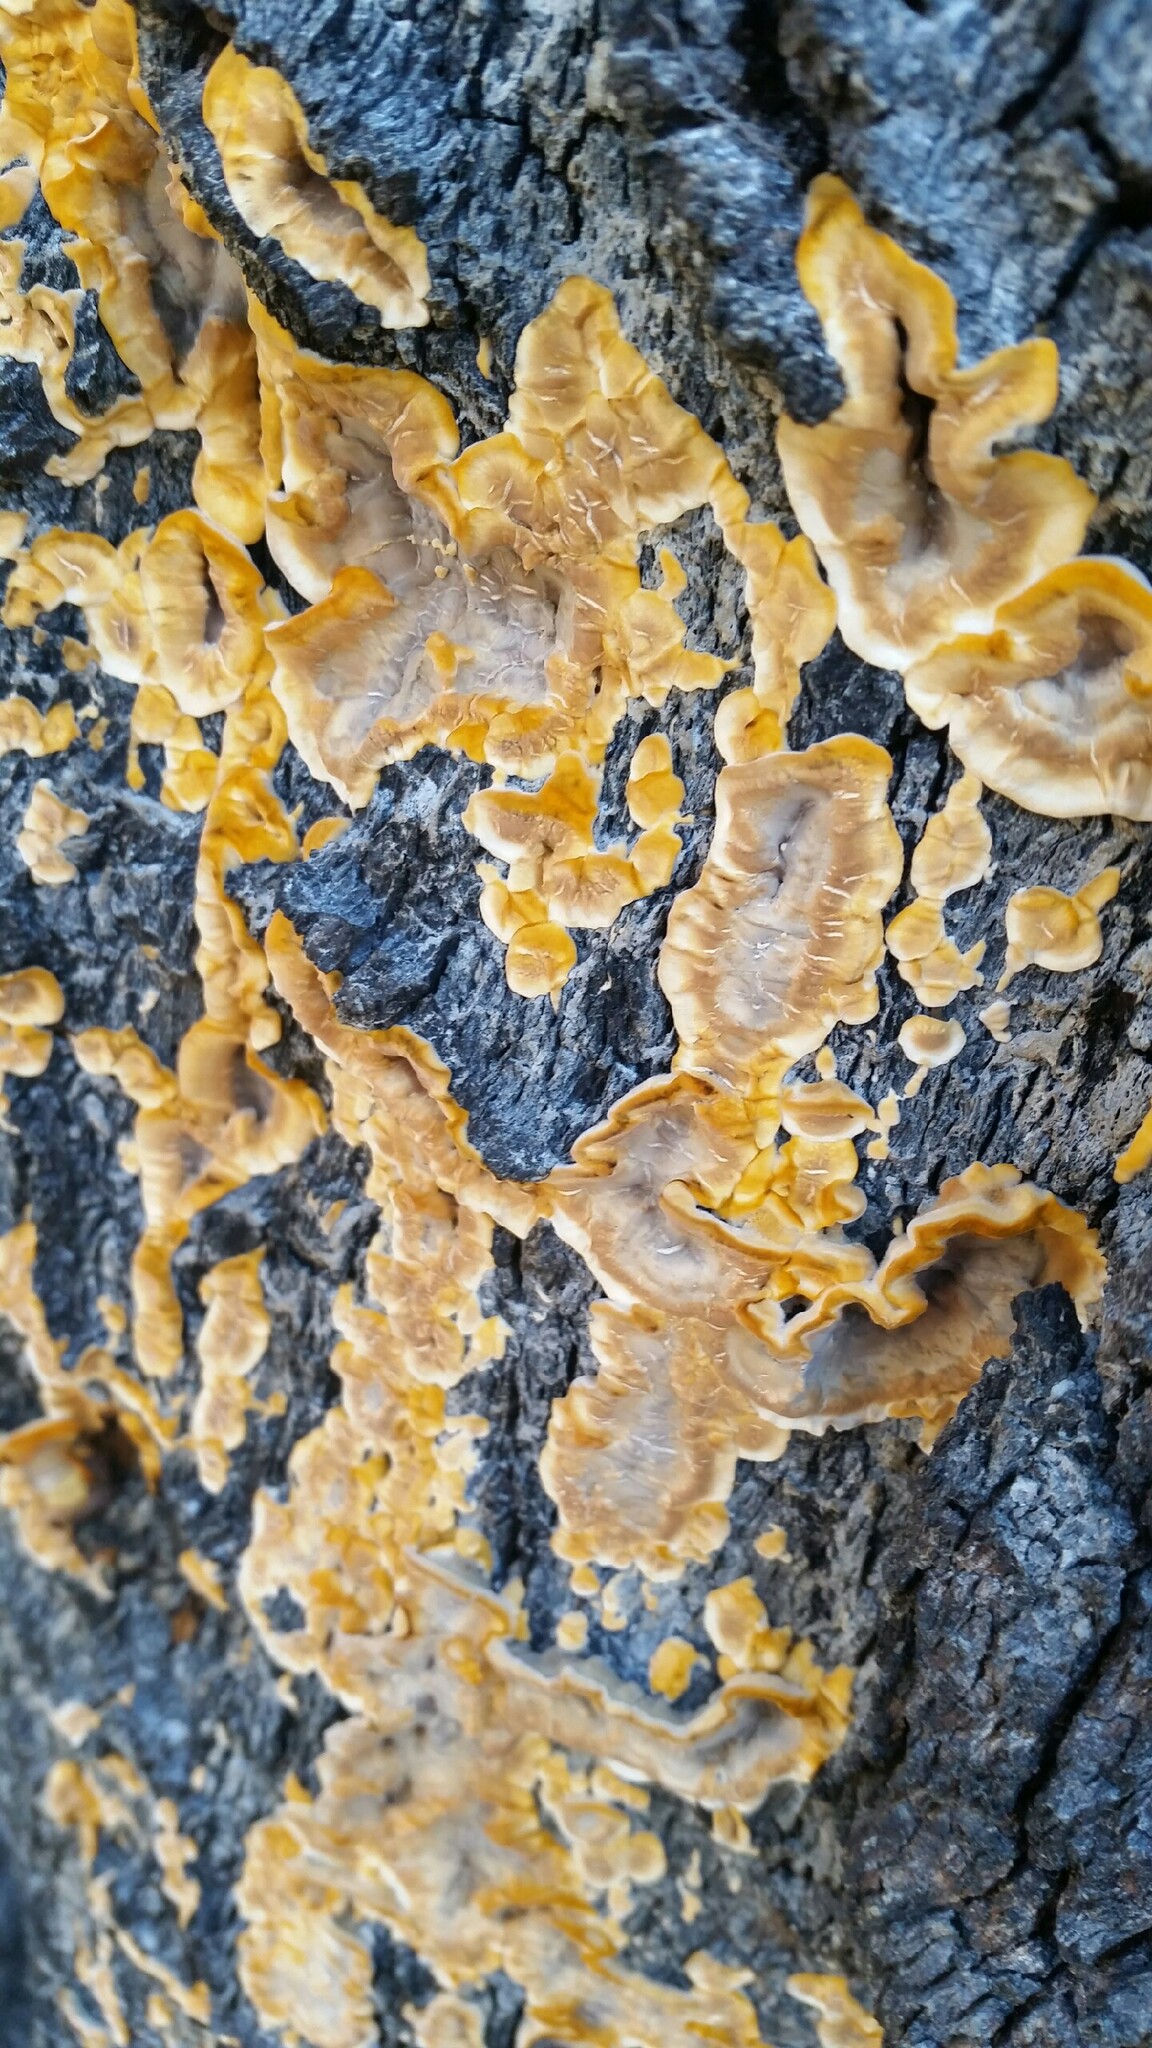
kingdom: Fungi
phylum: Basidiomycota
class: Agaricomycetes
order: Russulales
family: Stereaceae
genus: Stereum
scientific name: Stereum hirsutum
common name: Hairy curtain crust
